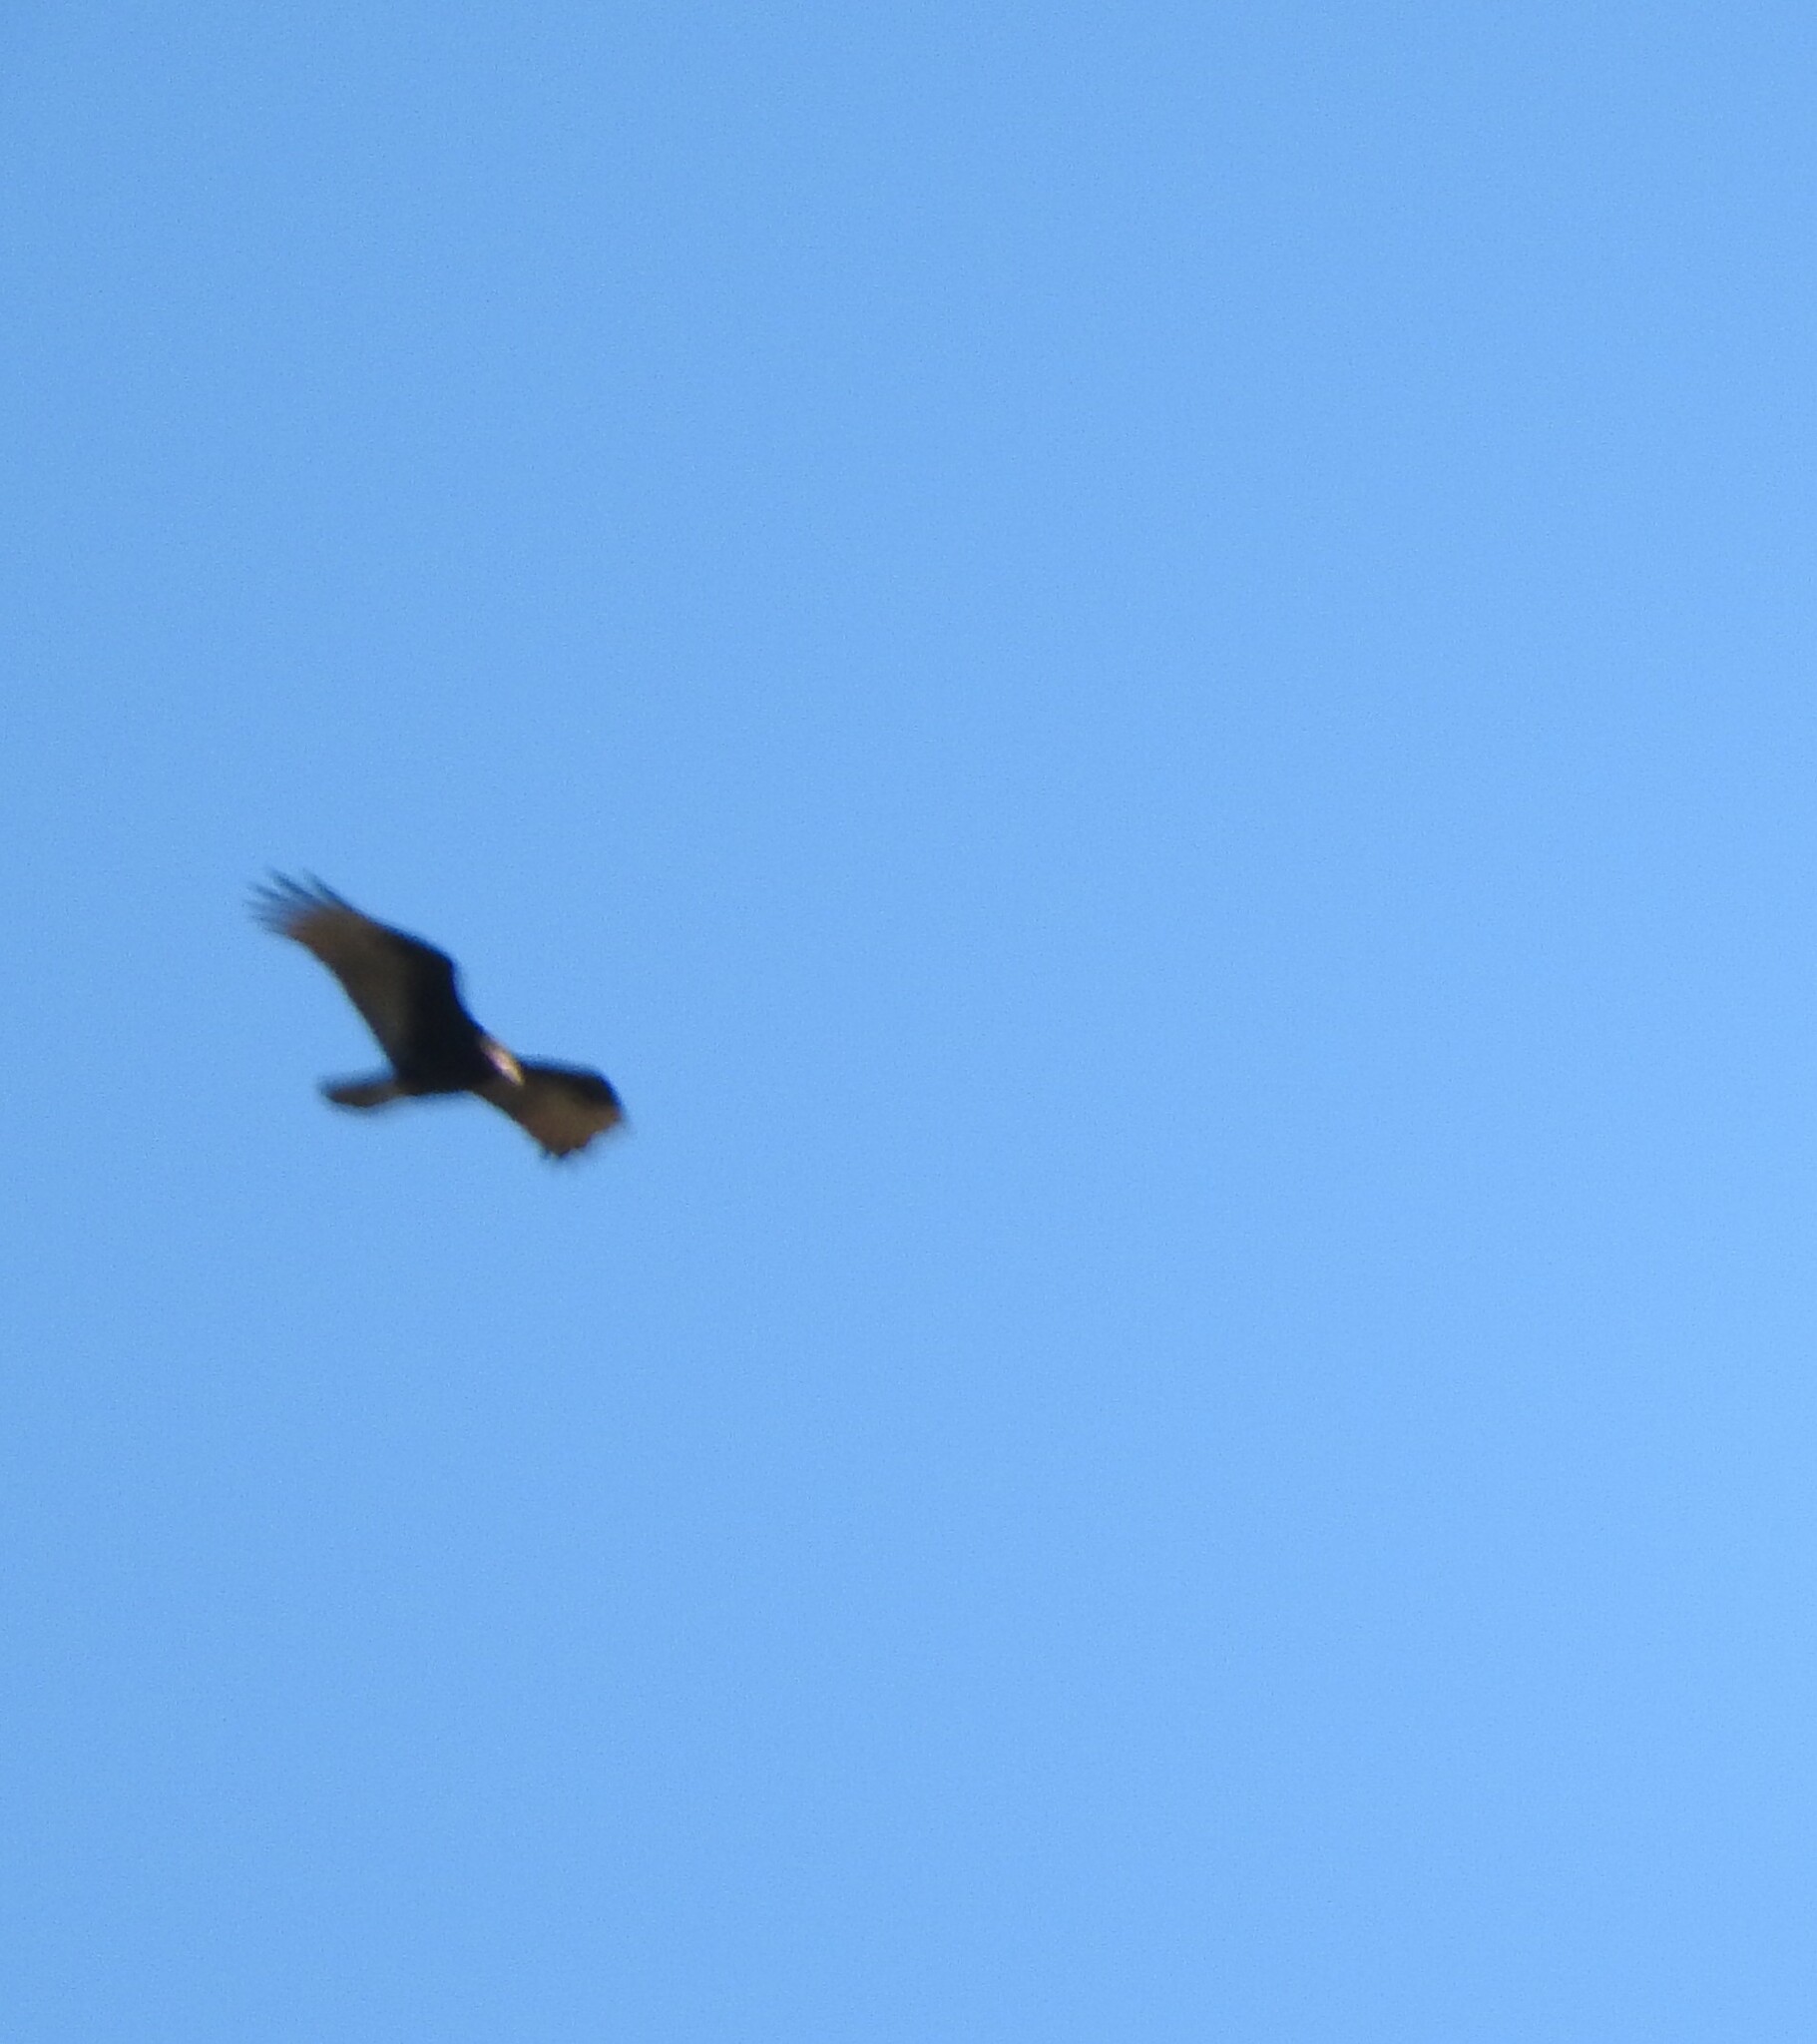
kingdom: Animalia
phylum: Chordata
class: Aves
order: Accipitriformes
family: Cathartidae
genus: Cathartes
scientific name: Cathartes aura
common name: Turkey vulture
